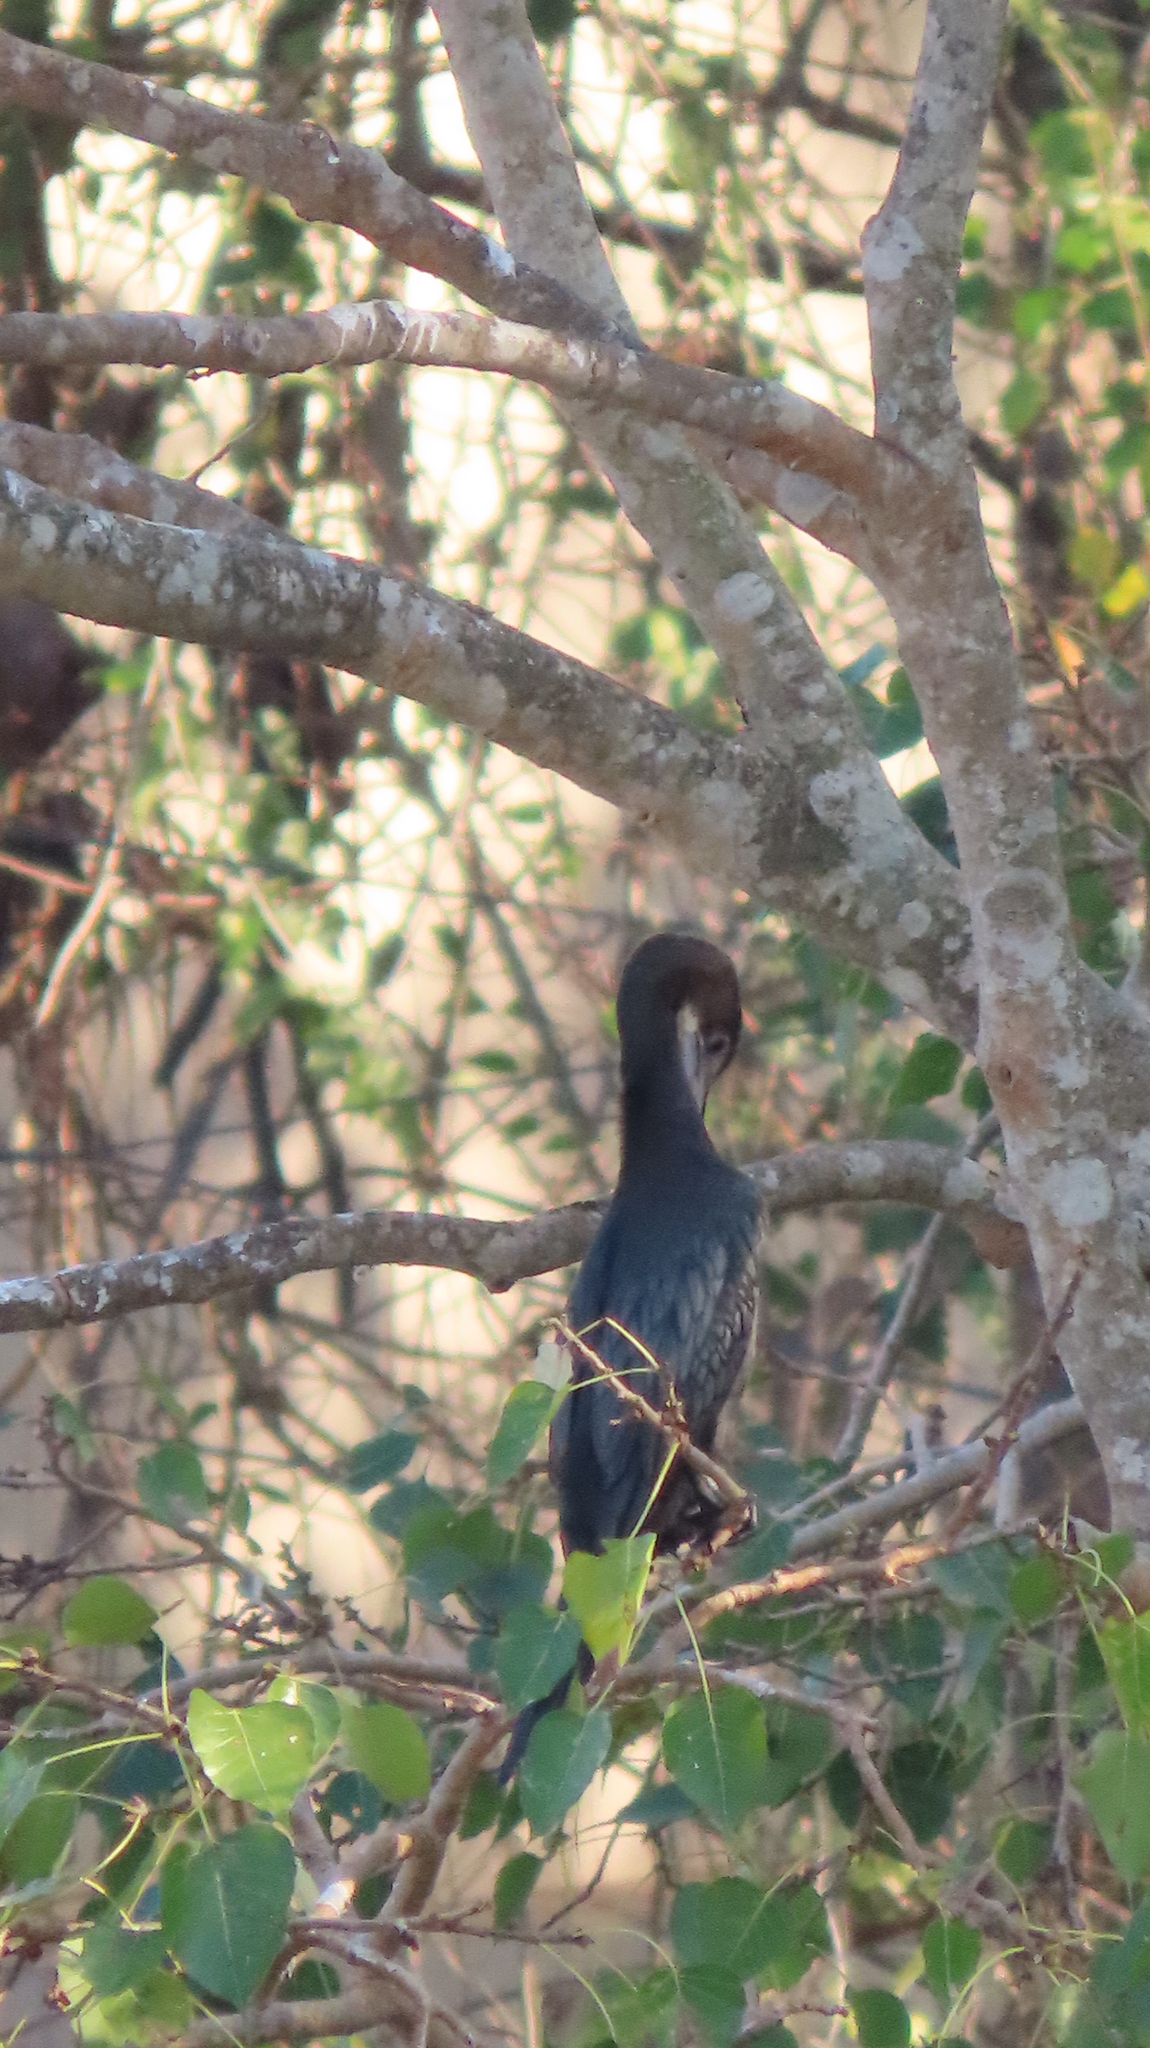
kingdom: Animalia
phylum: Chordata
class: Aves
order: Suliformes
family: Phalacrocoracidae
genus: Microcarbo
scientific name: Microcarbo niger
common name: Little cormorant
